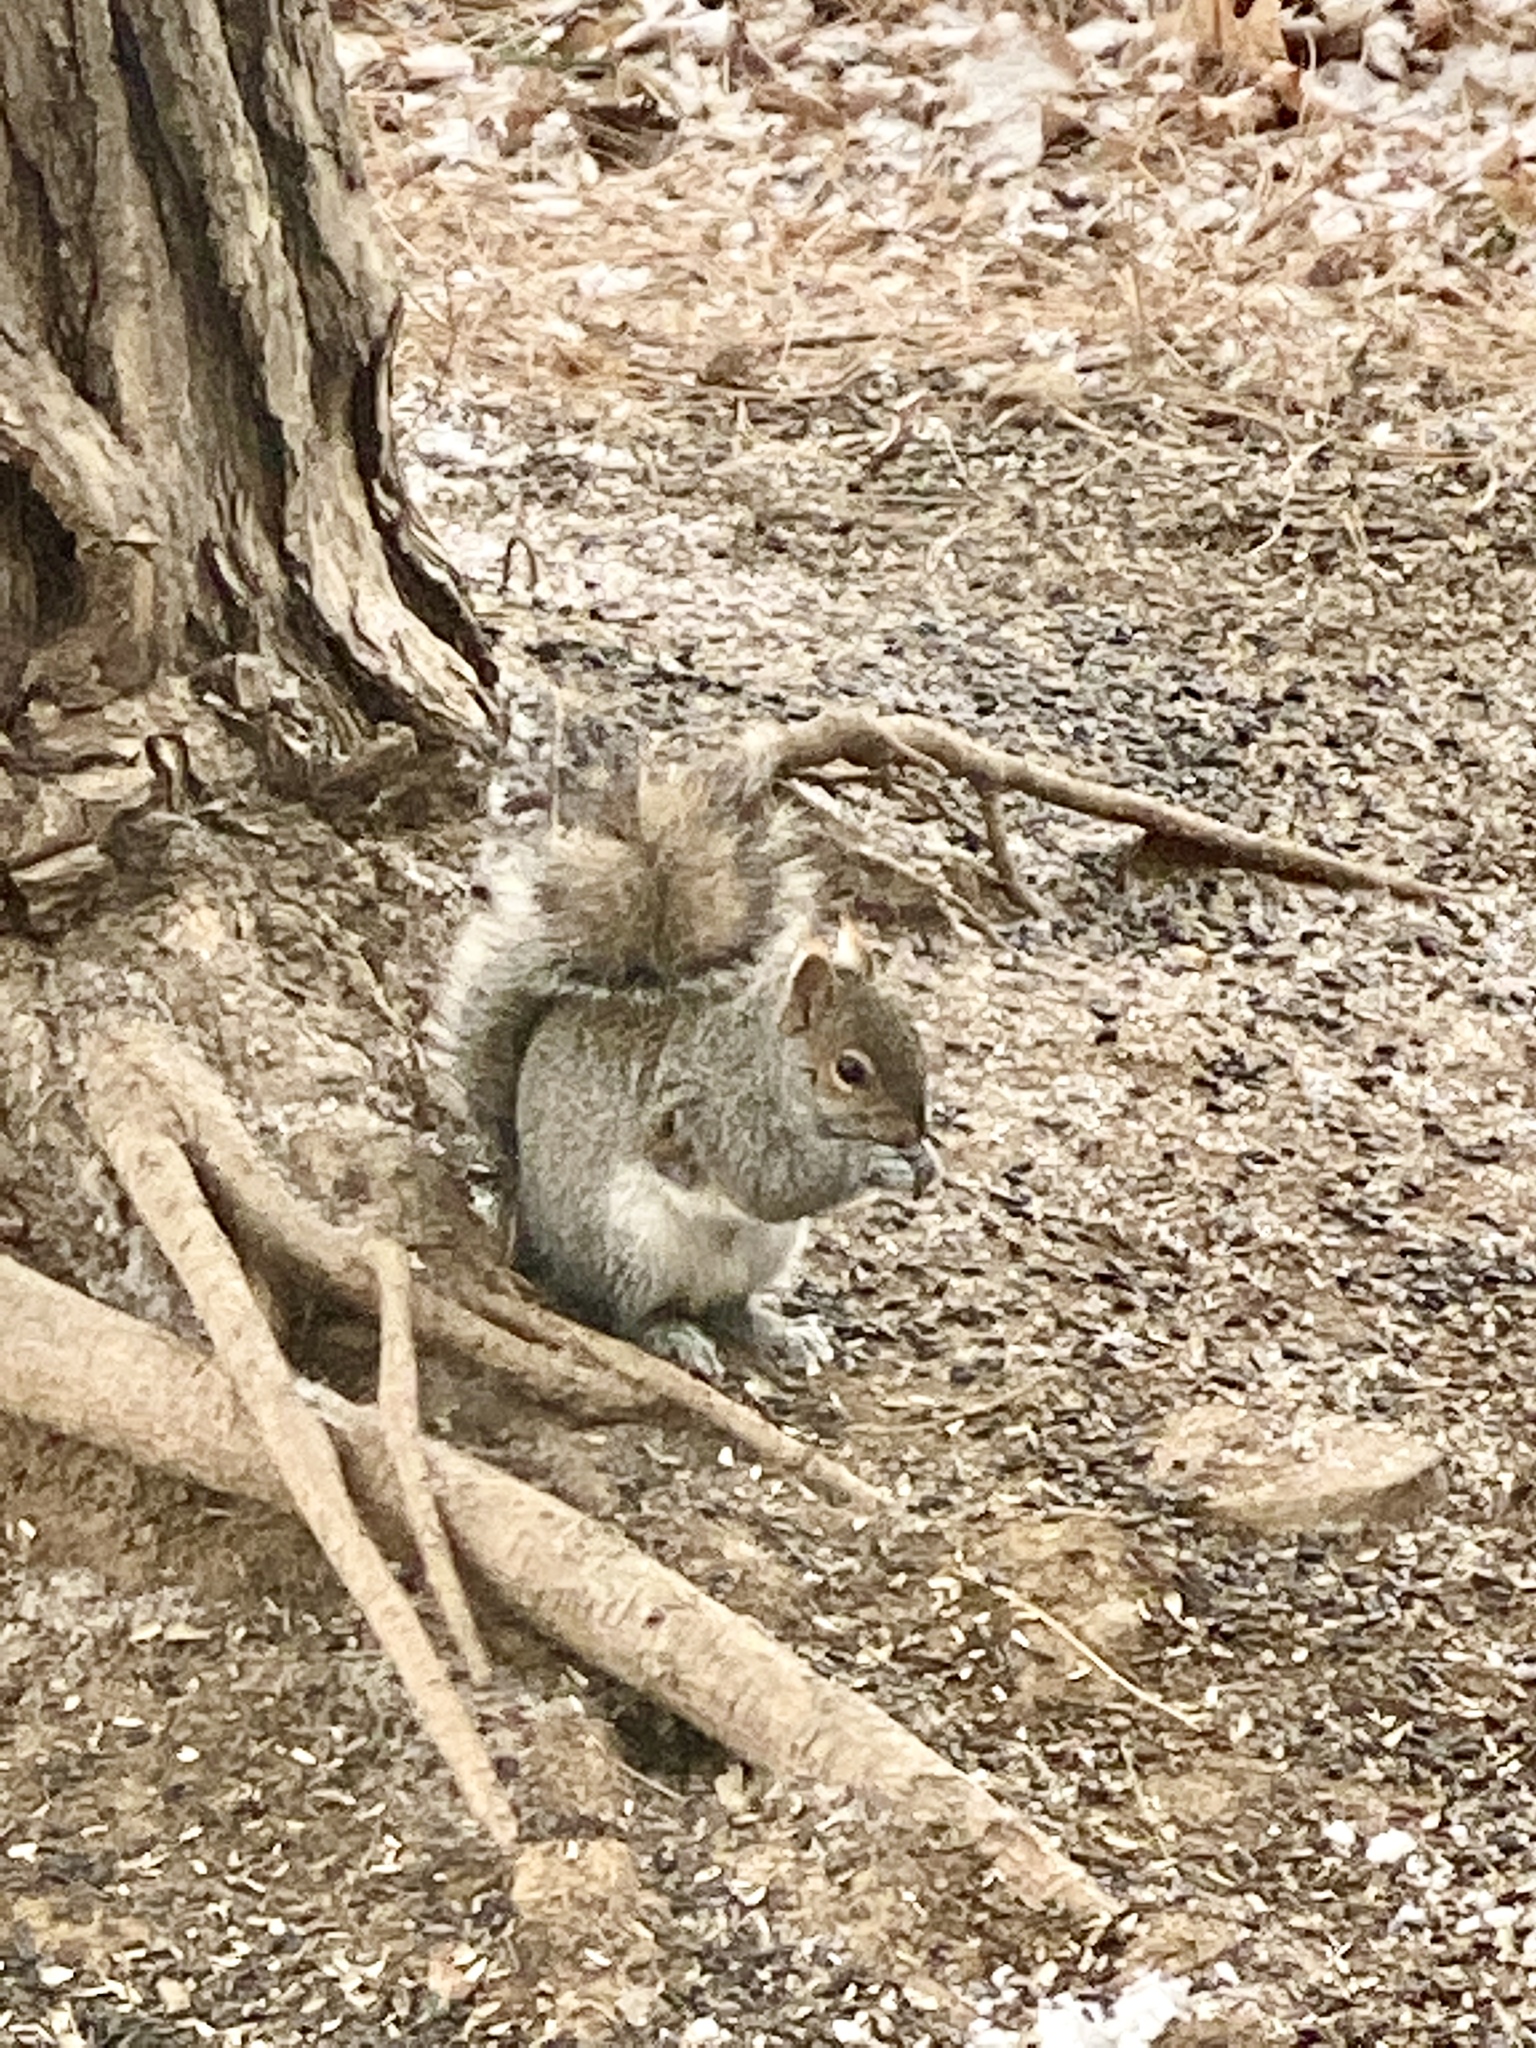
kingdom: Animalia
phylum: Chordata
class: Mammalia
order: Rodentia
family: Sciuridae
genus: Sciurus
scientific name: Sciurus carolinensis
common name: Eastern gray squirrel
